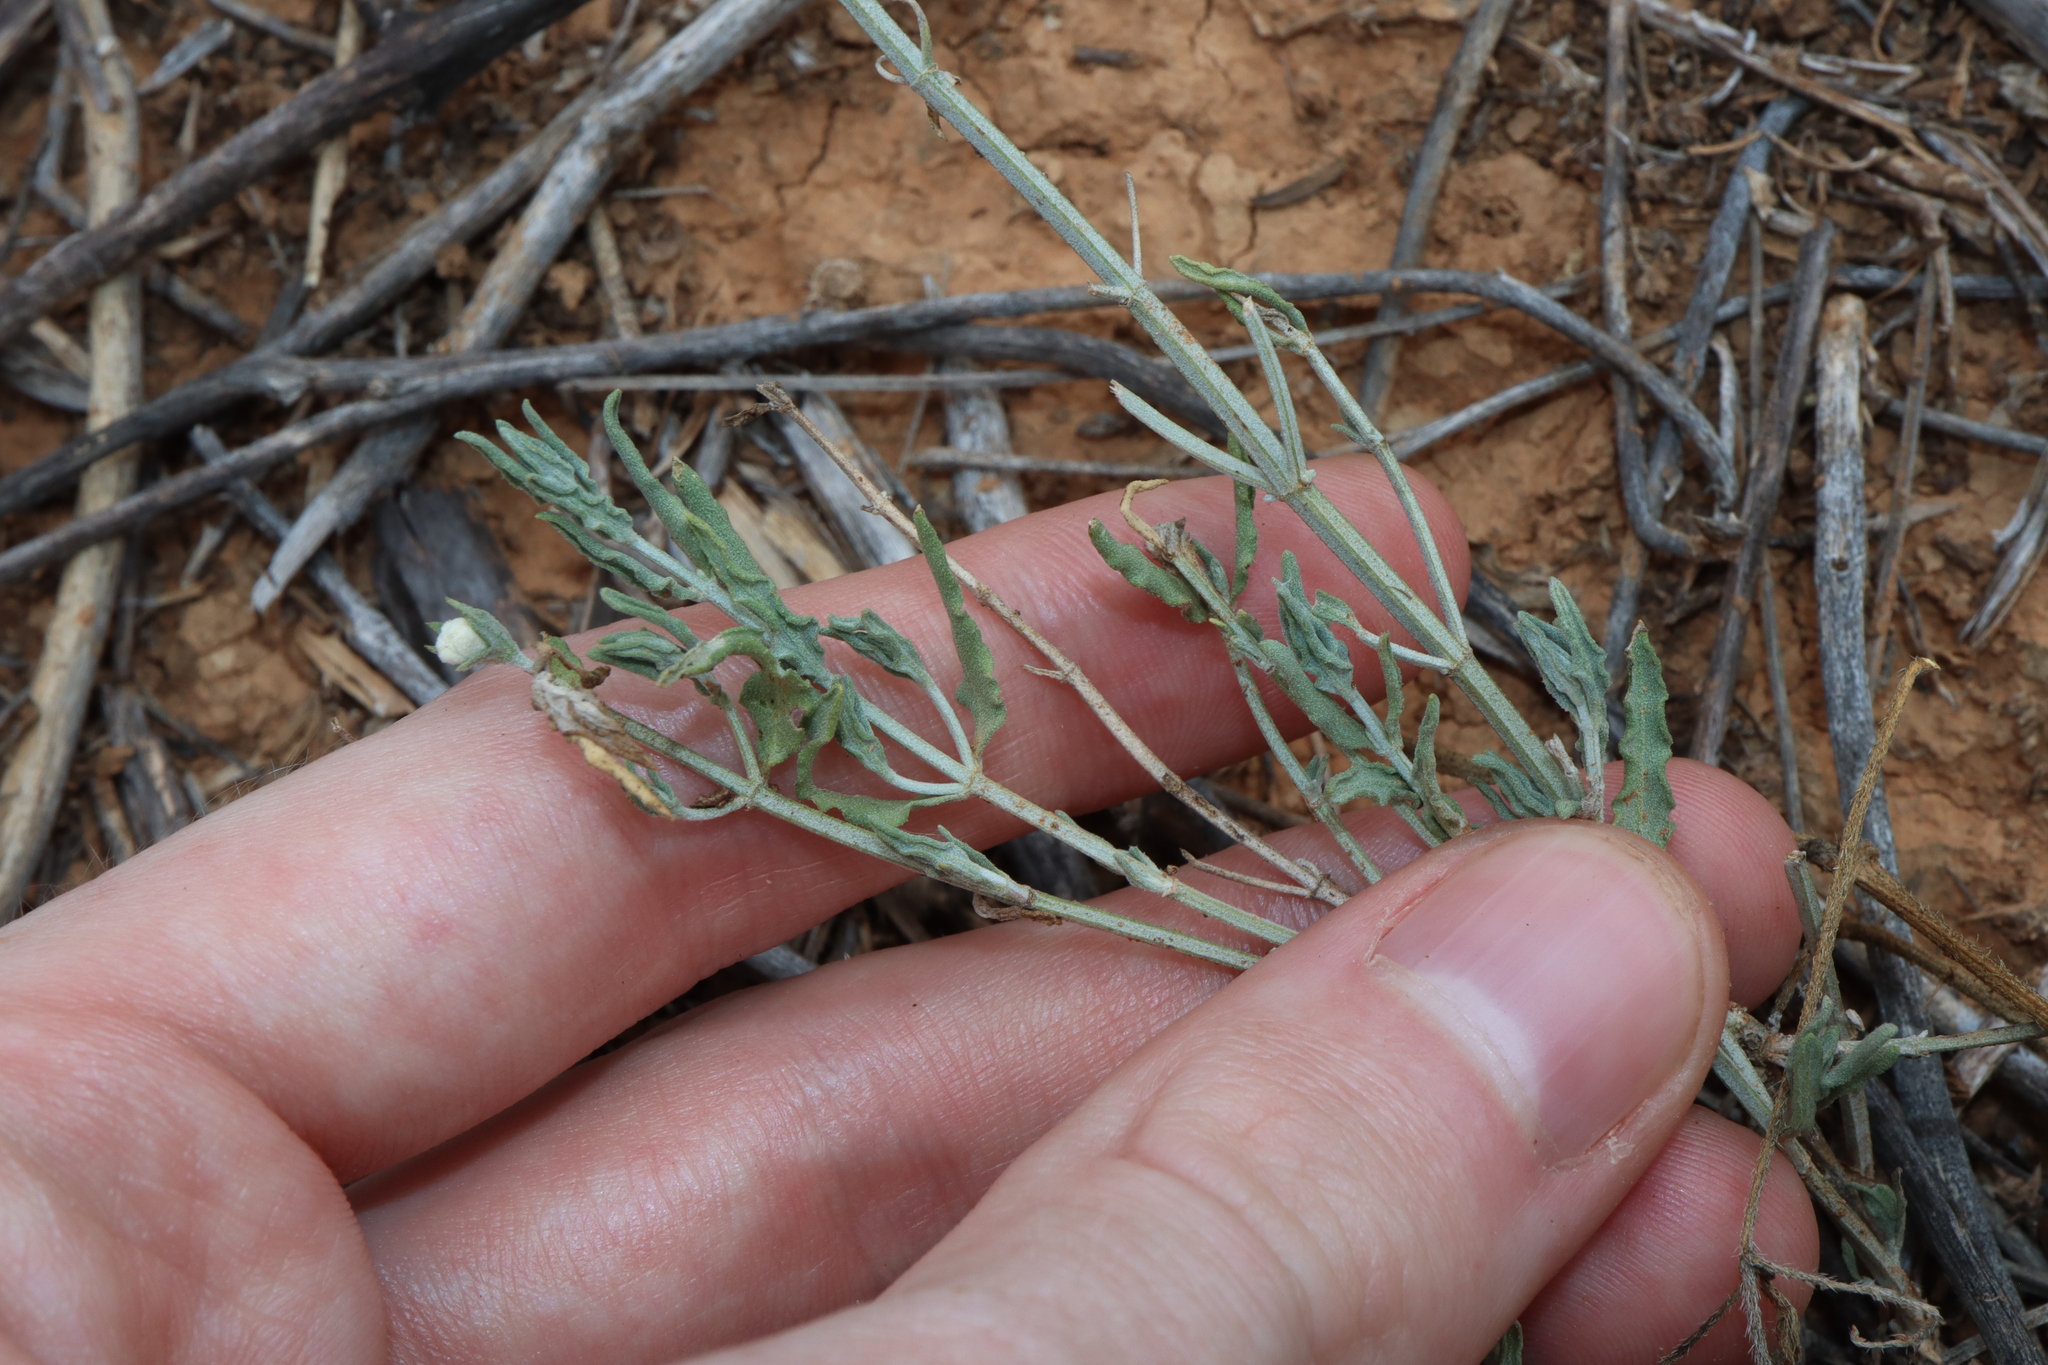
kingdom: Plantae
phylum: Tracheophyta
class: Magnoliopsida
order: Lamiales
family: Lamiaceae
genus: Teucrium
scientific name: Teucrium racemosum
